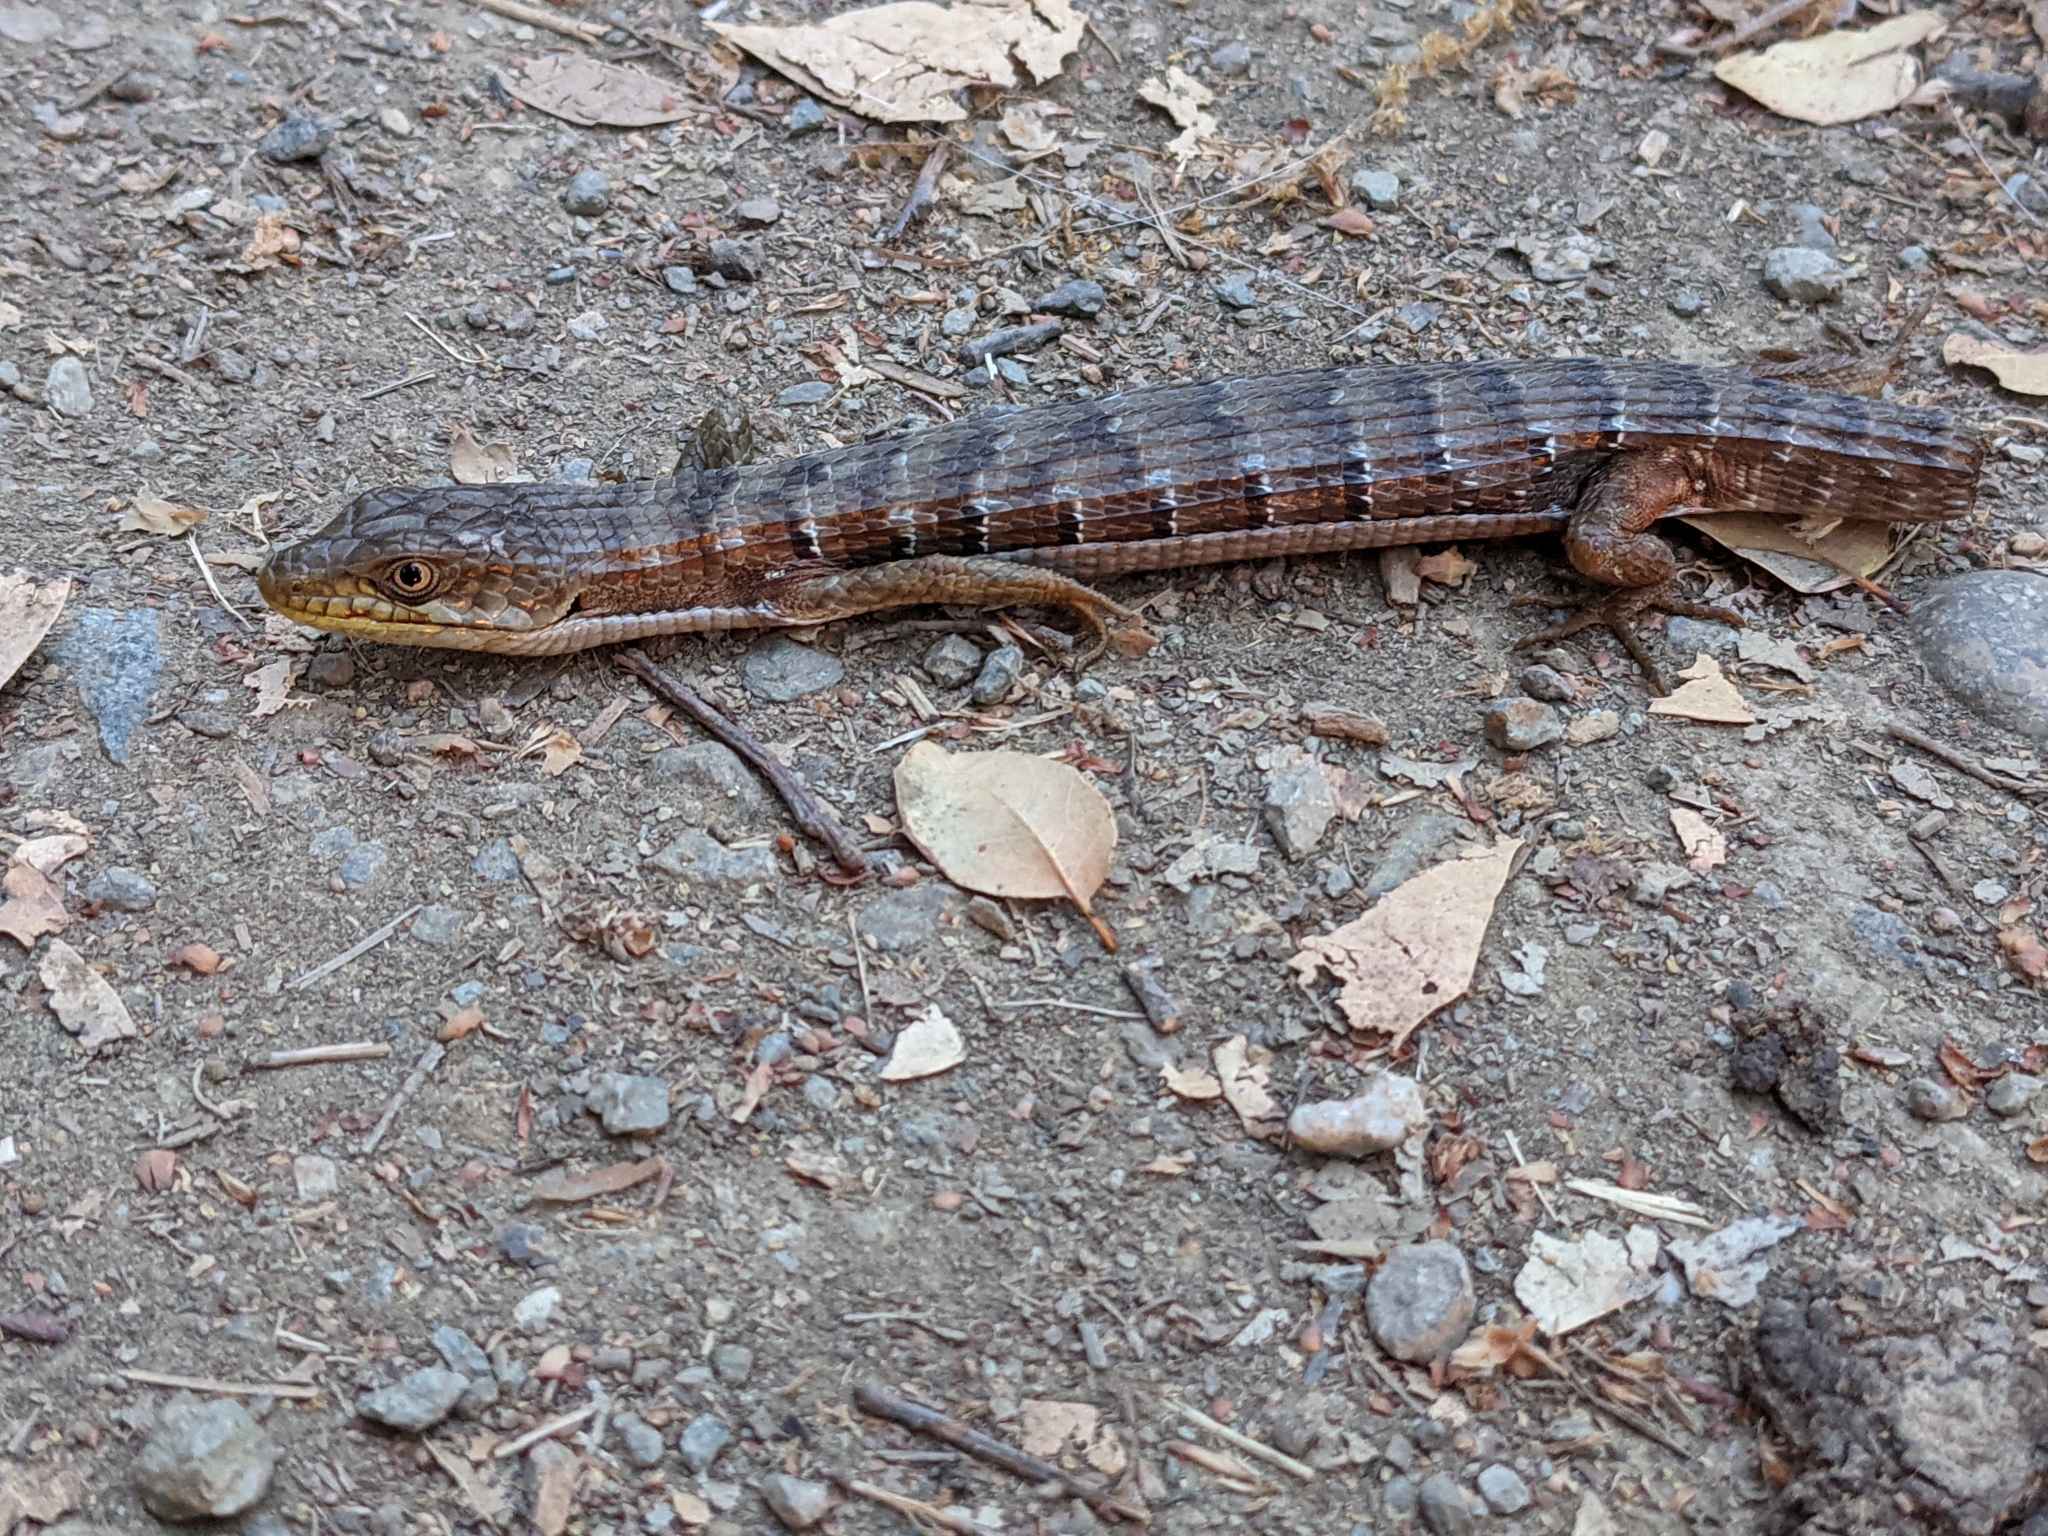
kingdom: Animalia
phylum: Chordata
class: Squamata
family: Anguidae
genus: Elgaria
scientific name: Elgaria multicarinata
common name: Southern alligator lizard
